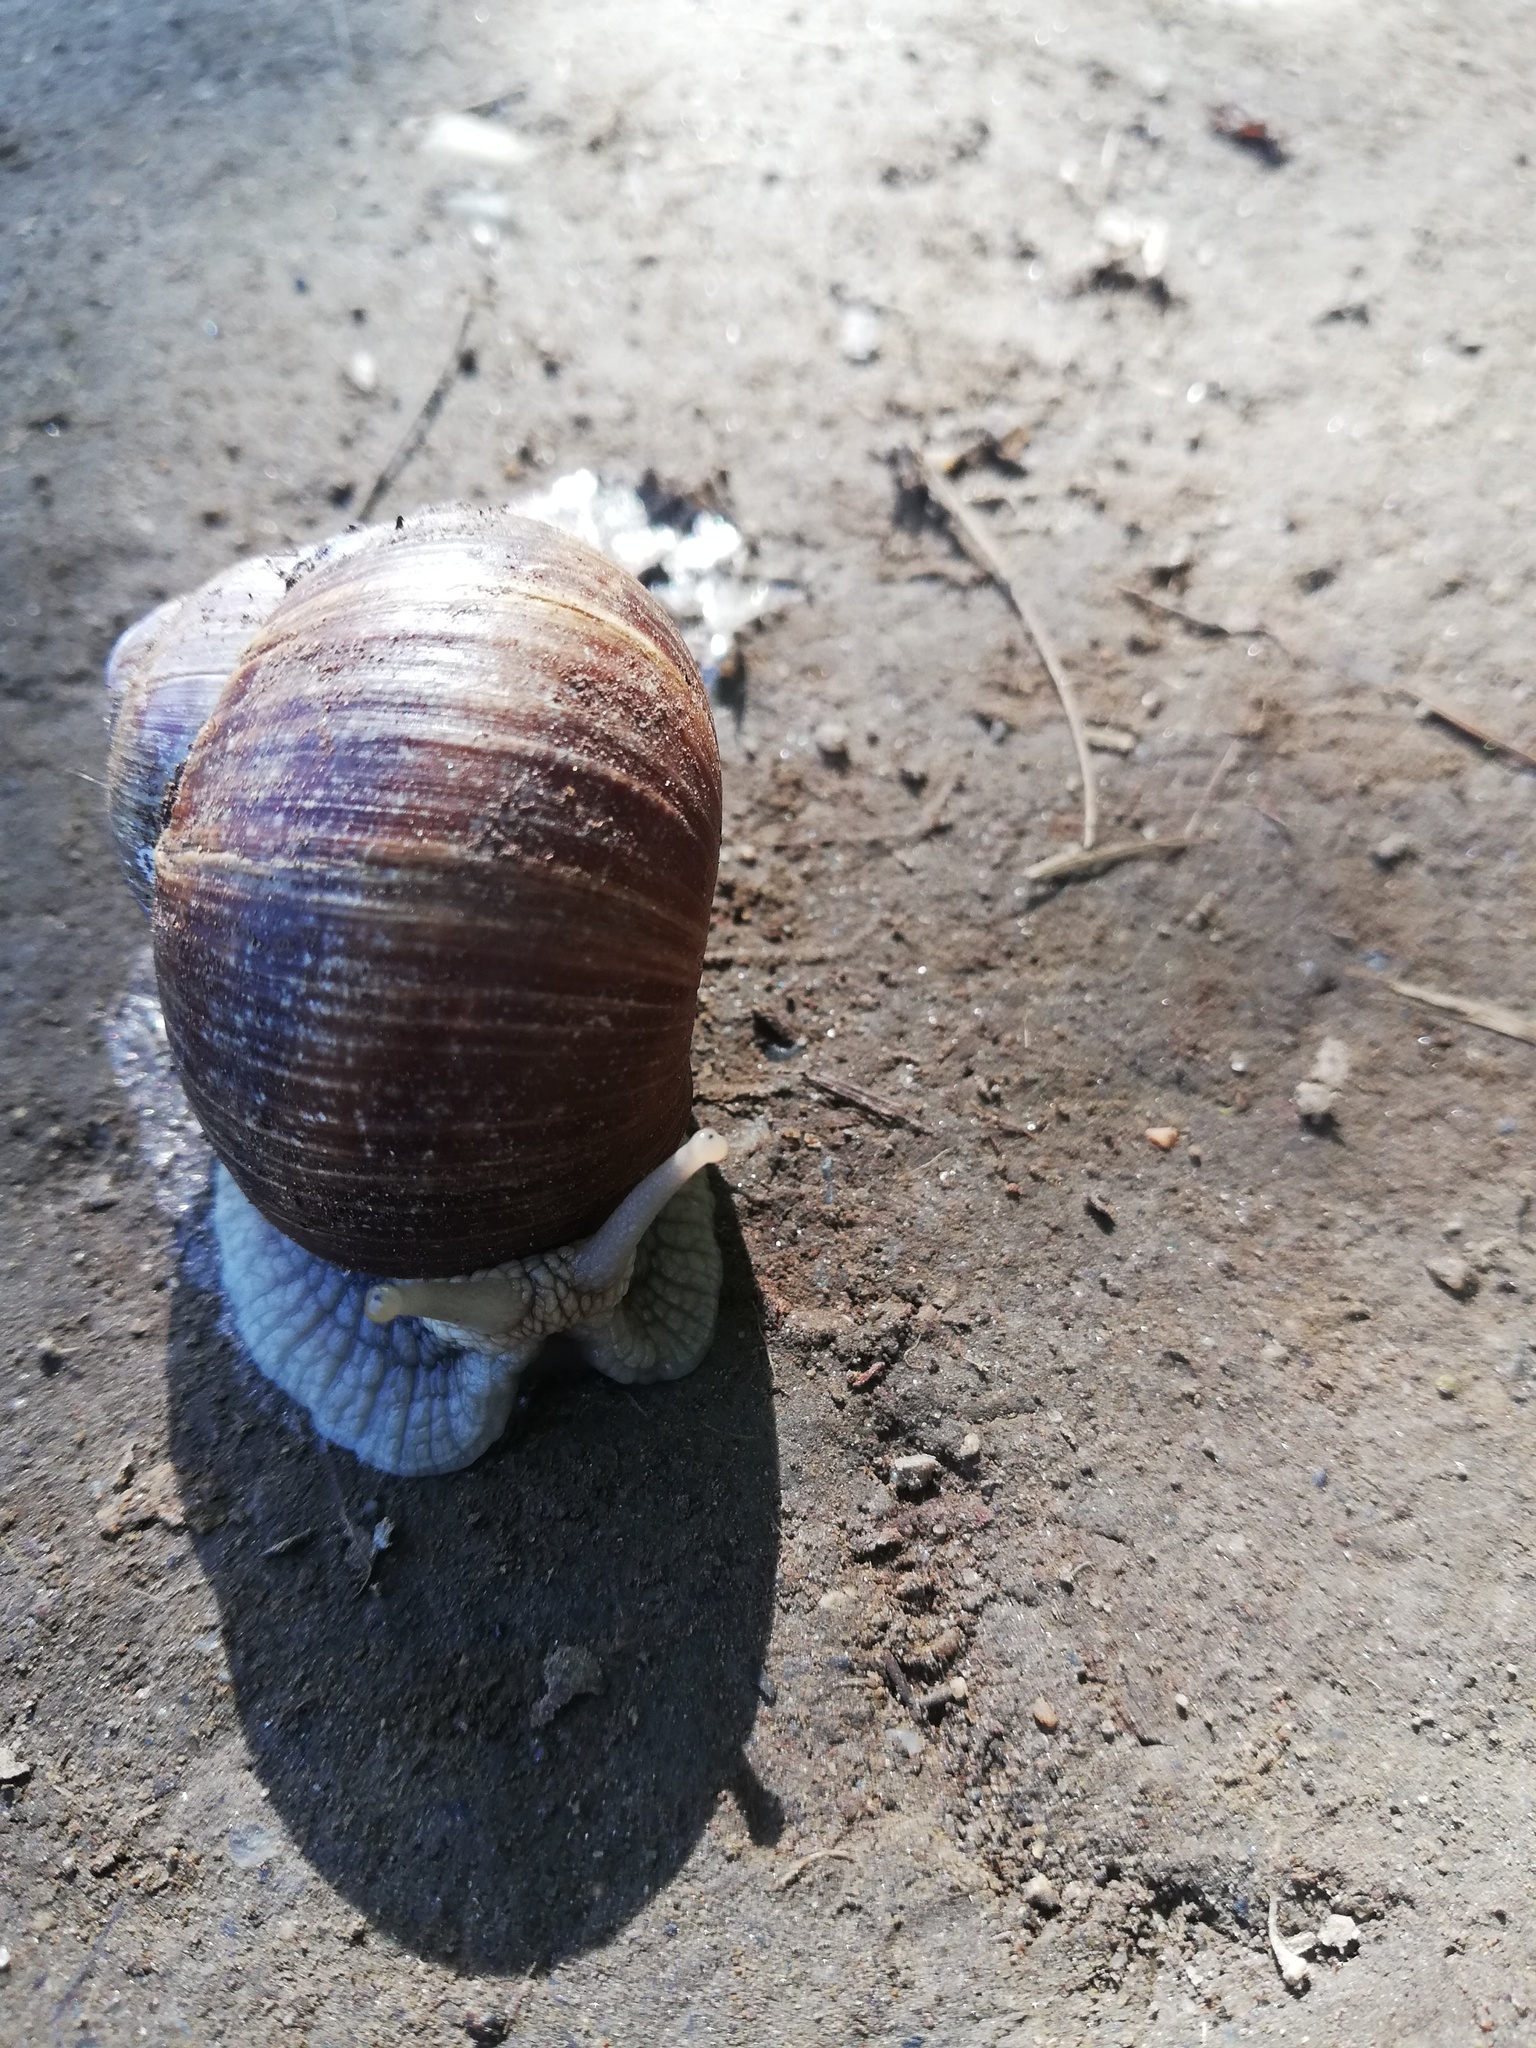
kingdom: Animalia
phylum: Mollusca
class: Gastropoda
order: Stylommatophora
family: Helicidae
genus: Helix
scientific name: Helix pomatia
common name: Roman snail
